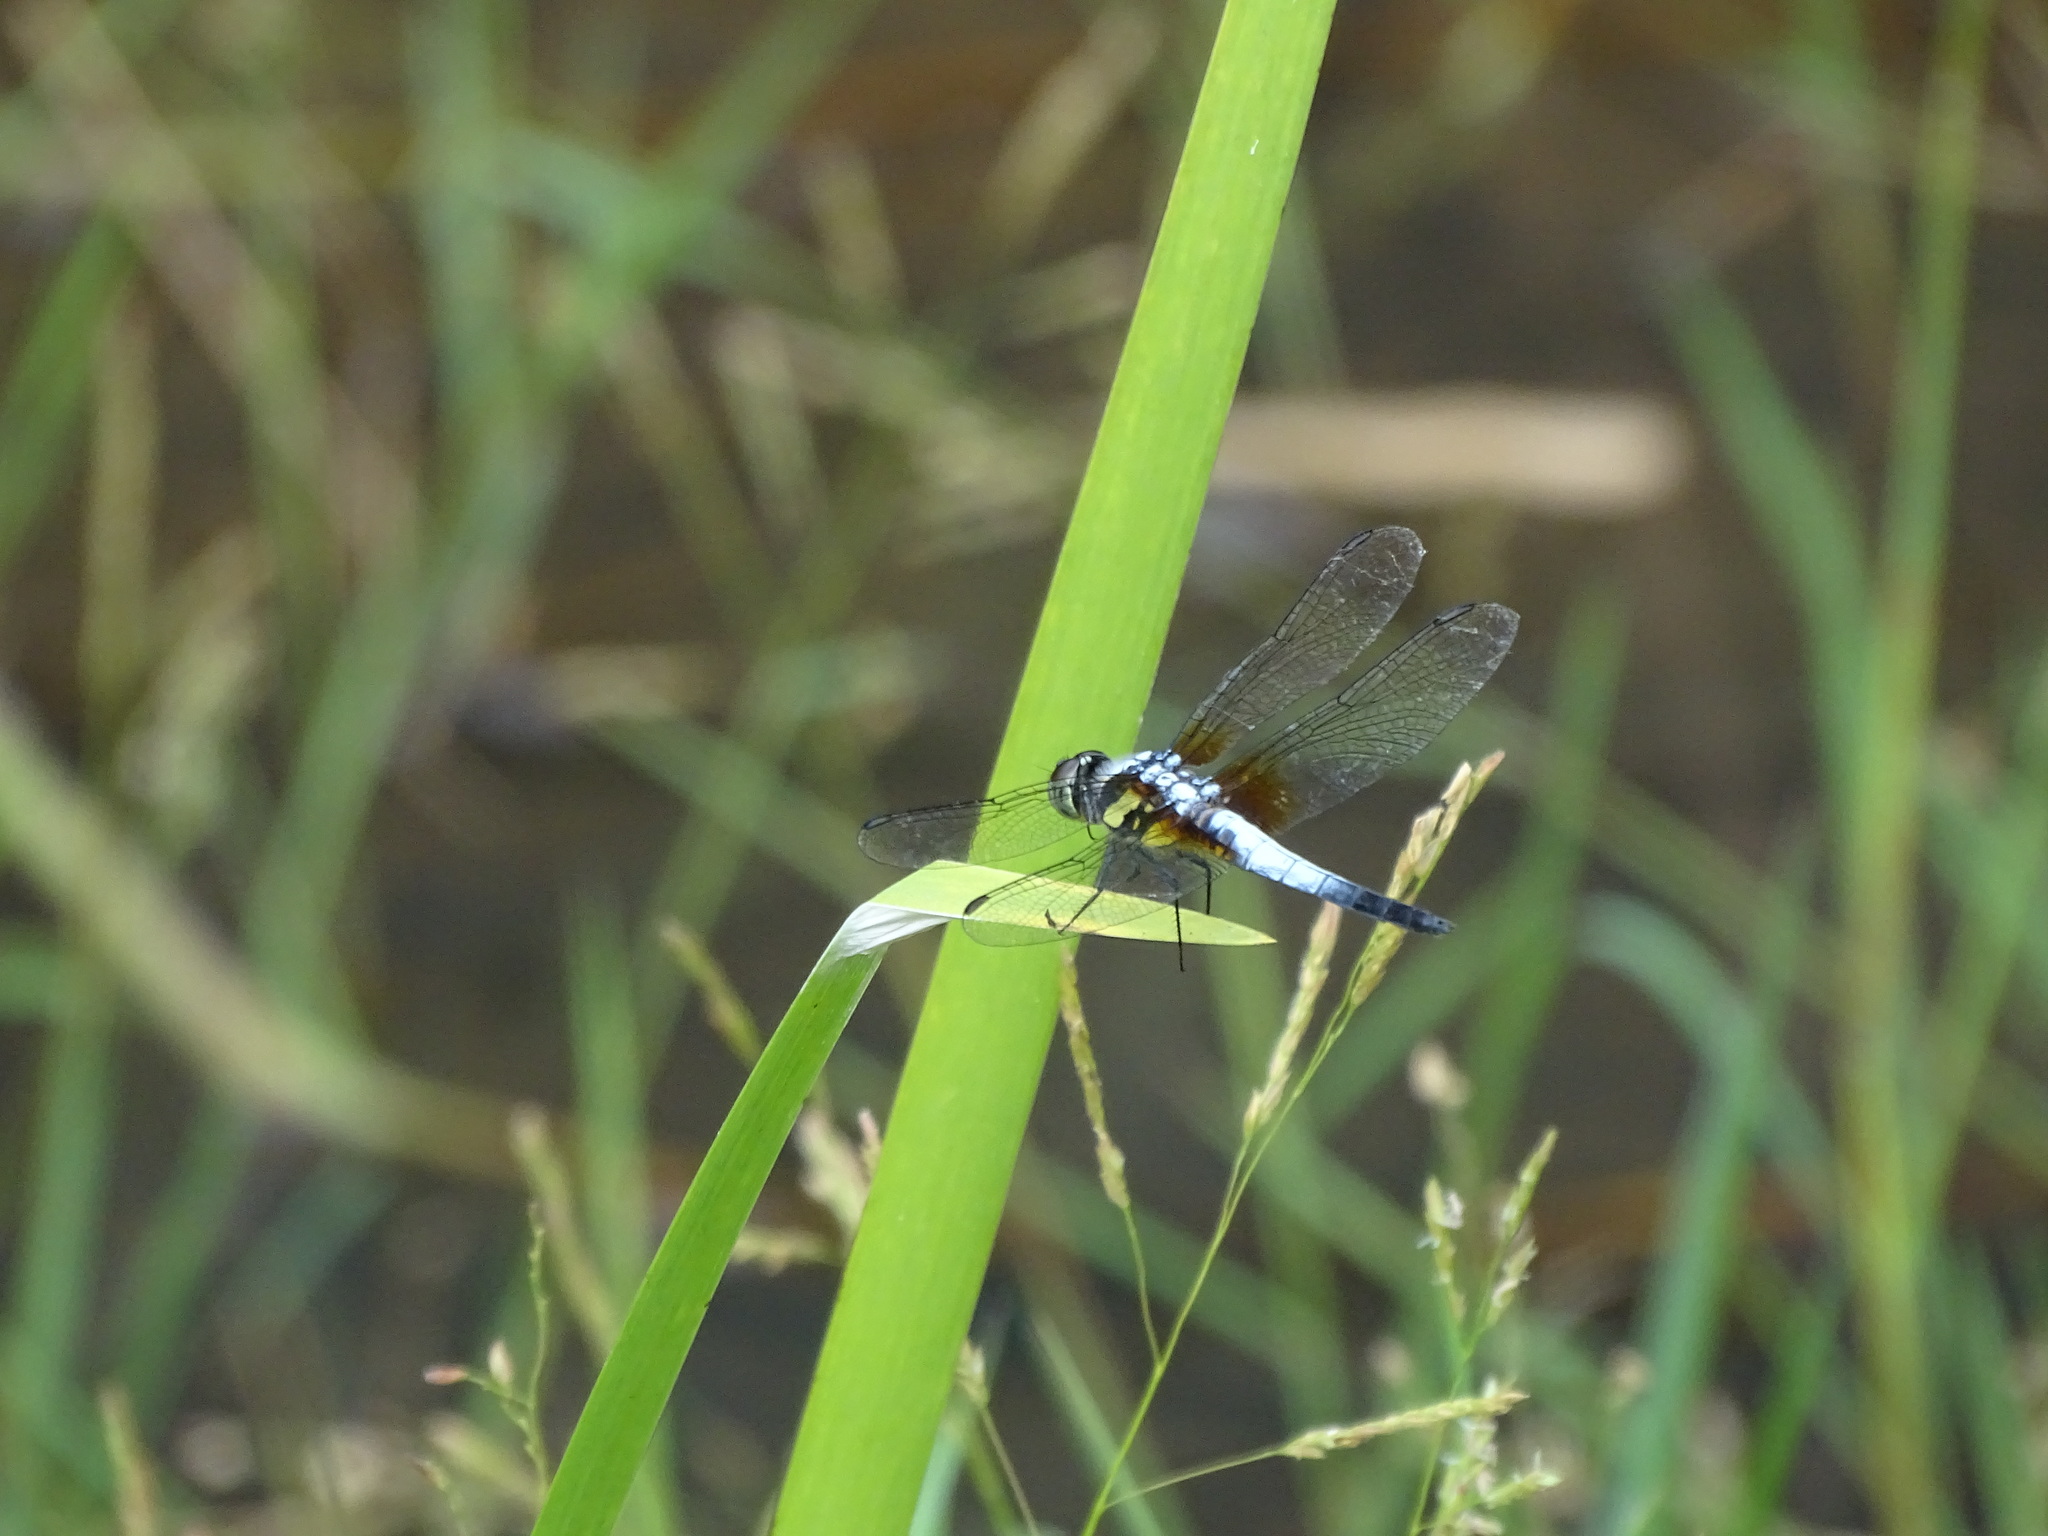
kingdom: Animalia
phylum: Arthropoda
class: Insecta
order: Odonata
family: Libellulidae
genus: Brachydiplax
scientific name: Brachydiplax chalybea
